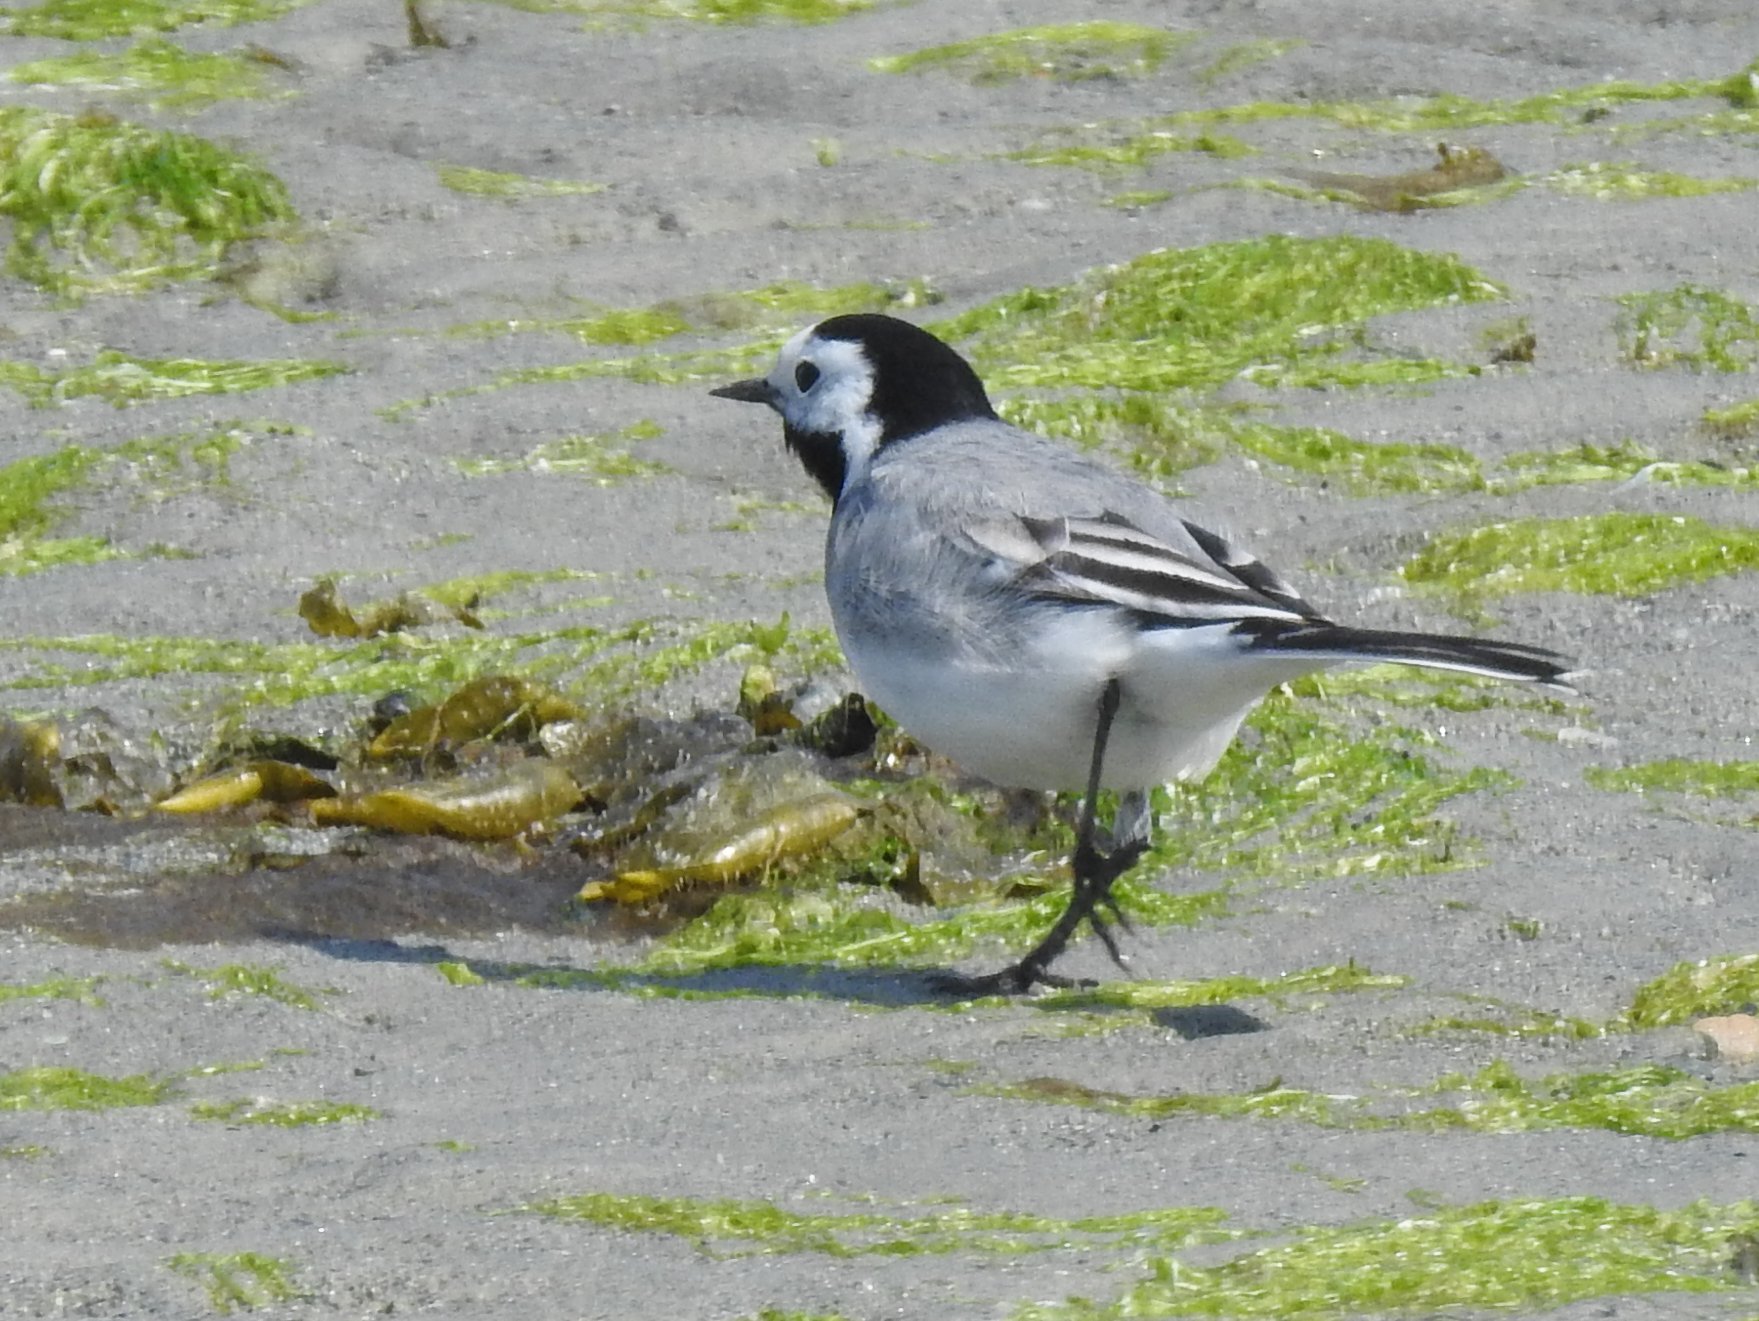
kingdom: Animalia
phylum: Chordata
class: Aves
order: Passeriformes
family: Motacillidae
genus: Motacilla
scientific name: Motacilla alba
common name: White wagtail
